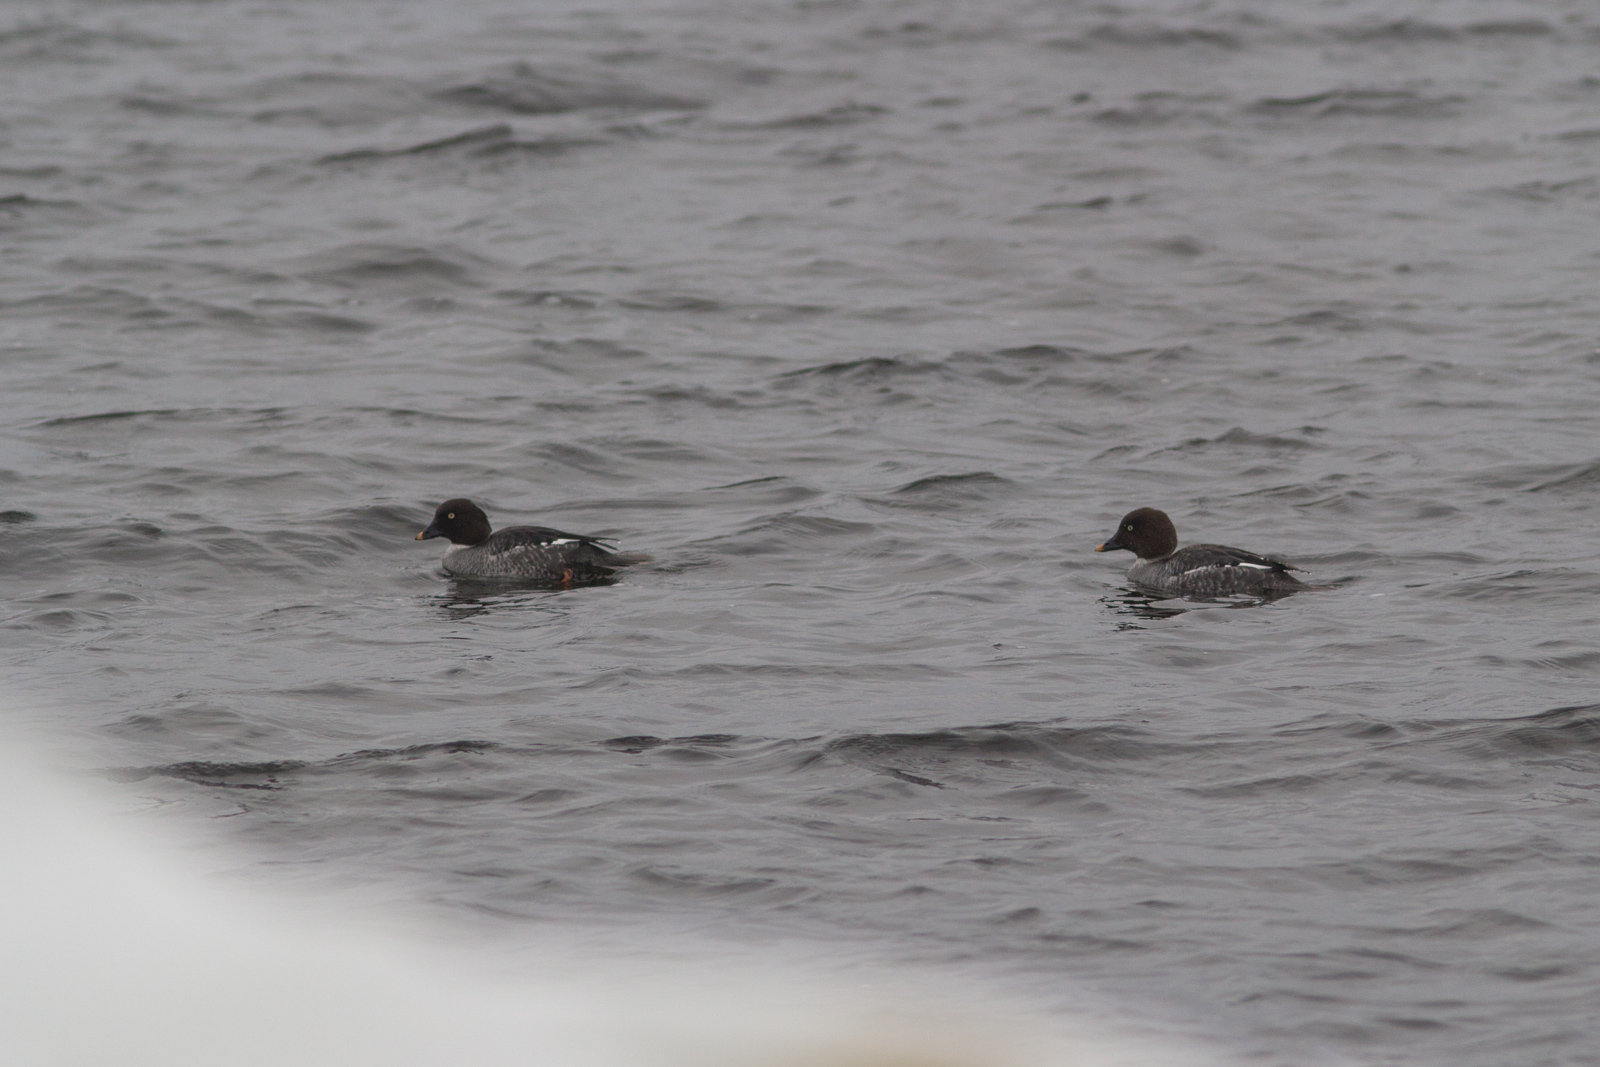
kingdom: Animalia
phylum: Chordata
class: Aves
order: Anseriformes
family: Anatidae
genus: Bucephala
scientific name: Bucephala clangula
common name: Common goldeneye
